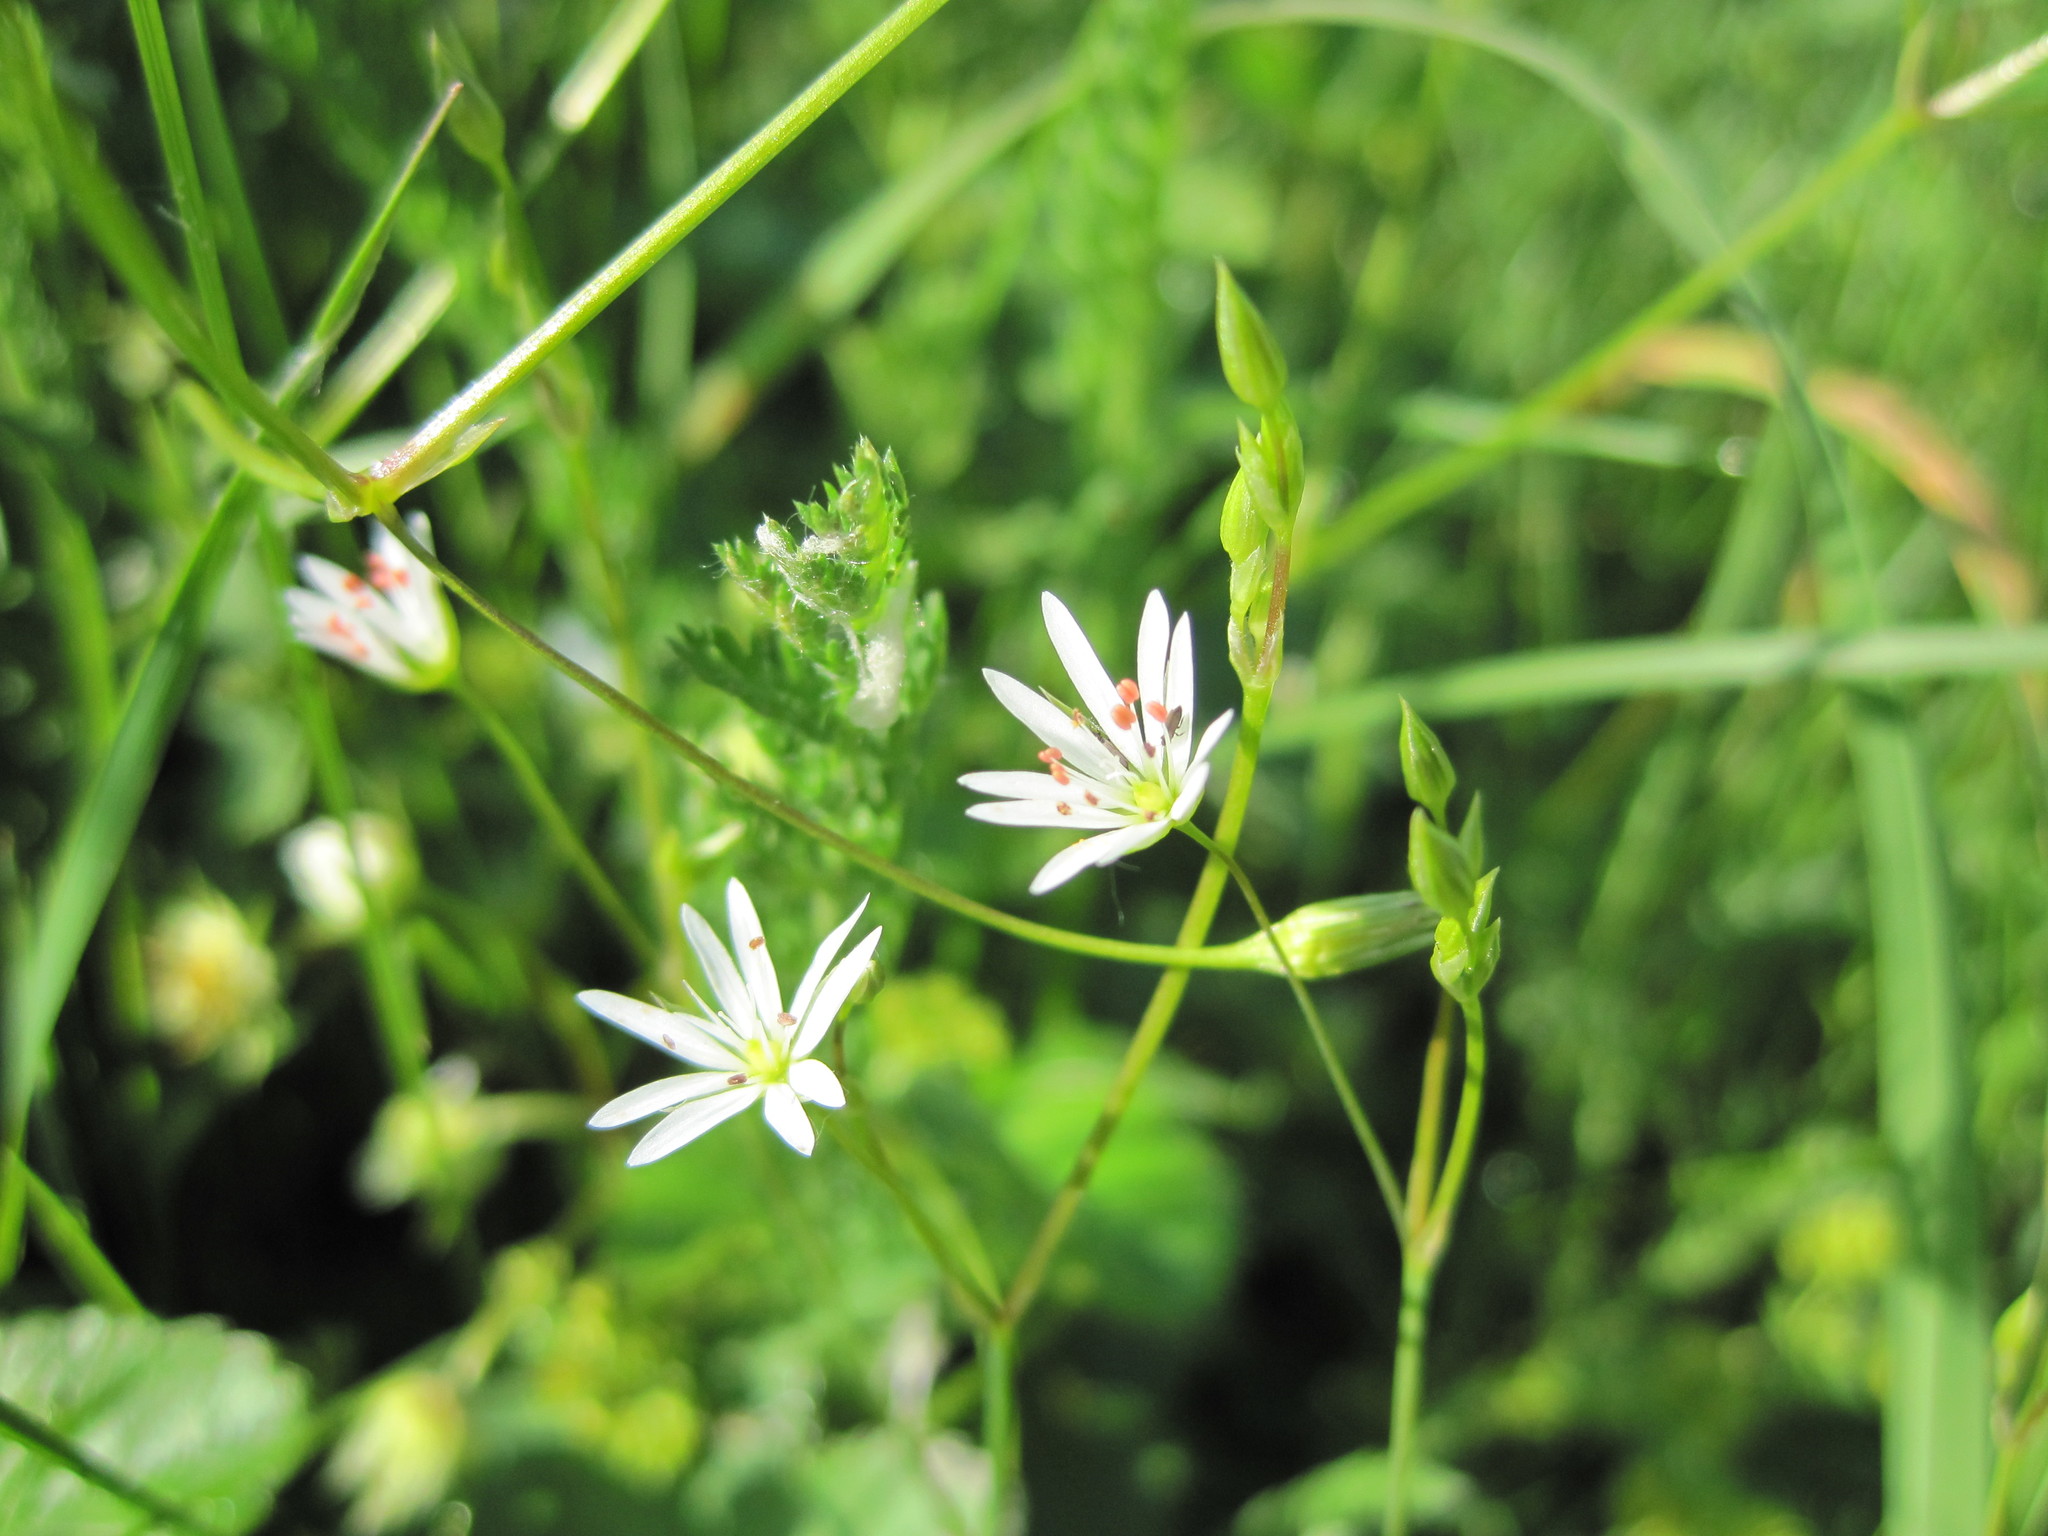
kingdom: Plantae
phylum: Tracheophyta
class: Magnoliopsida
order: Caryophyllales
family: Caryophyllaceae
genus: Stellaria
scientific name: Stellaria graminea
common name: Grass-like starwort
